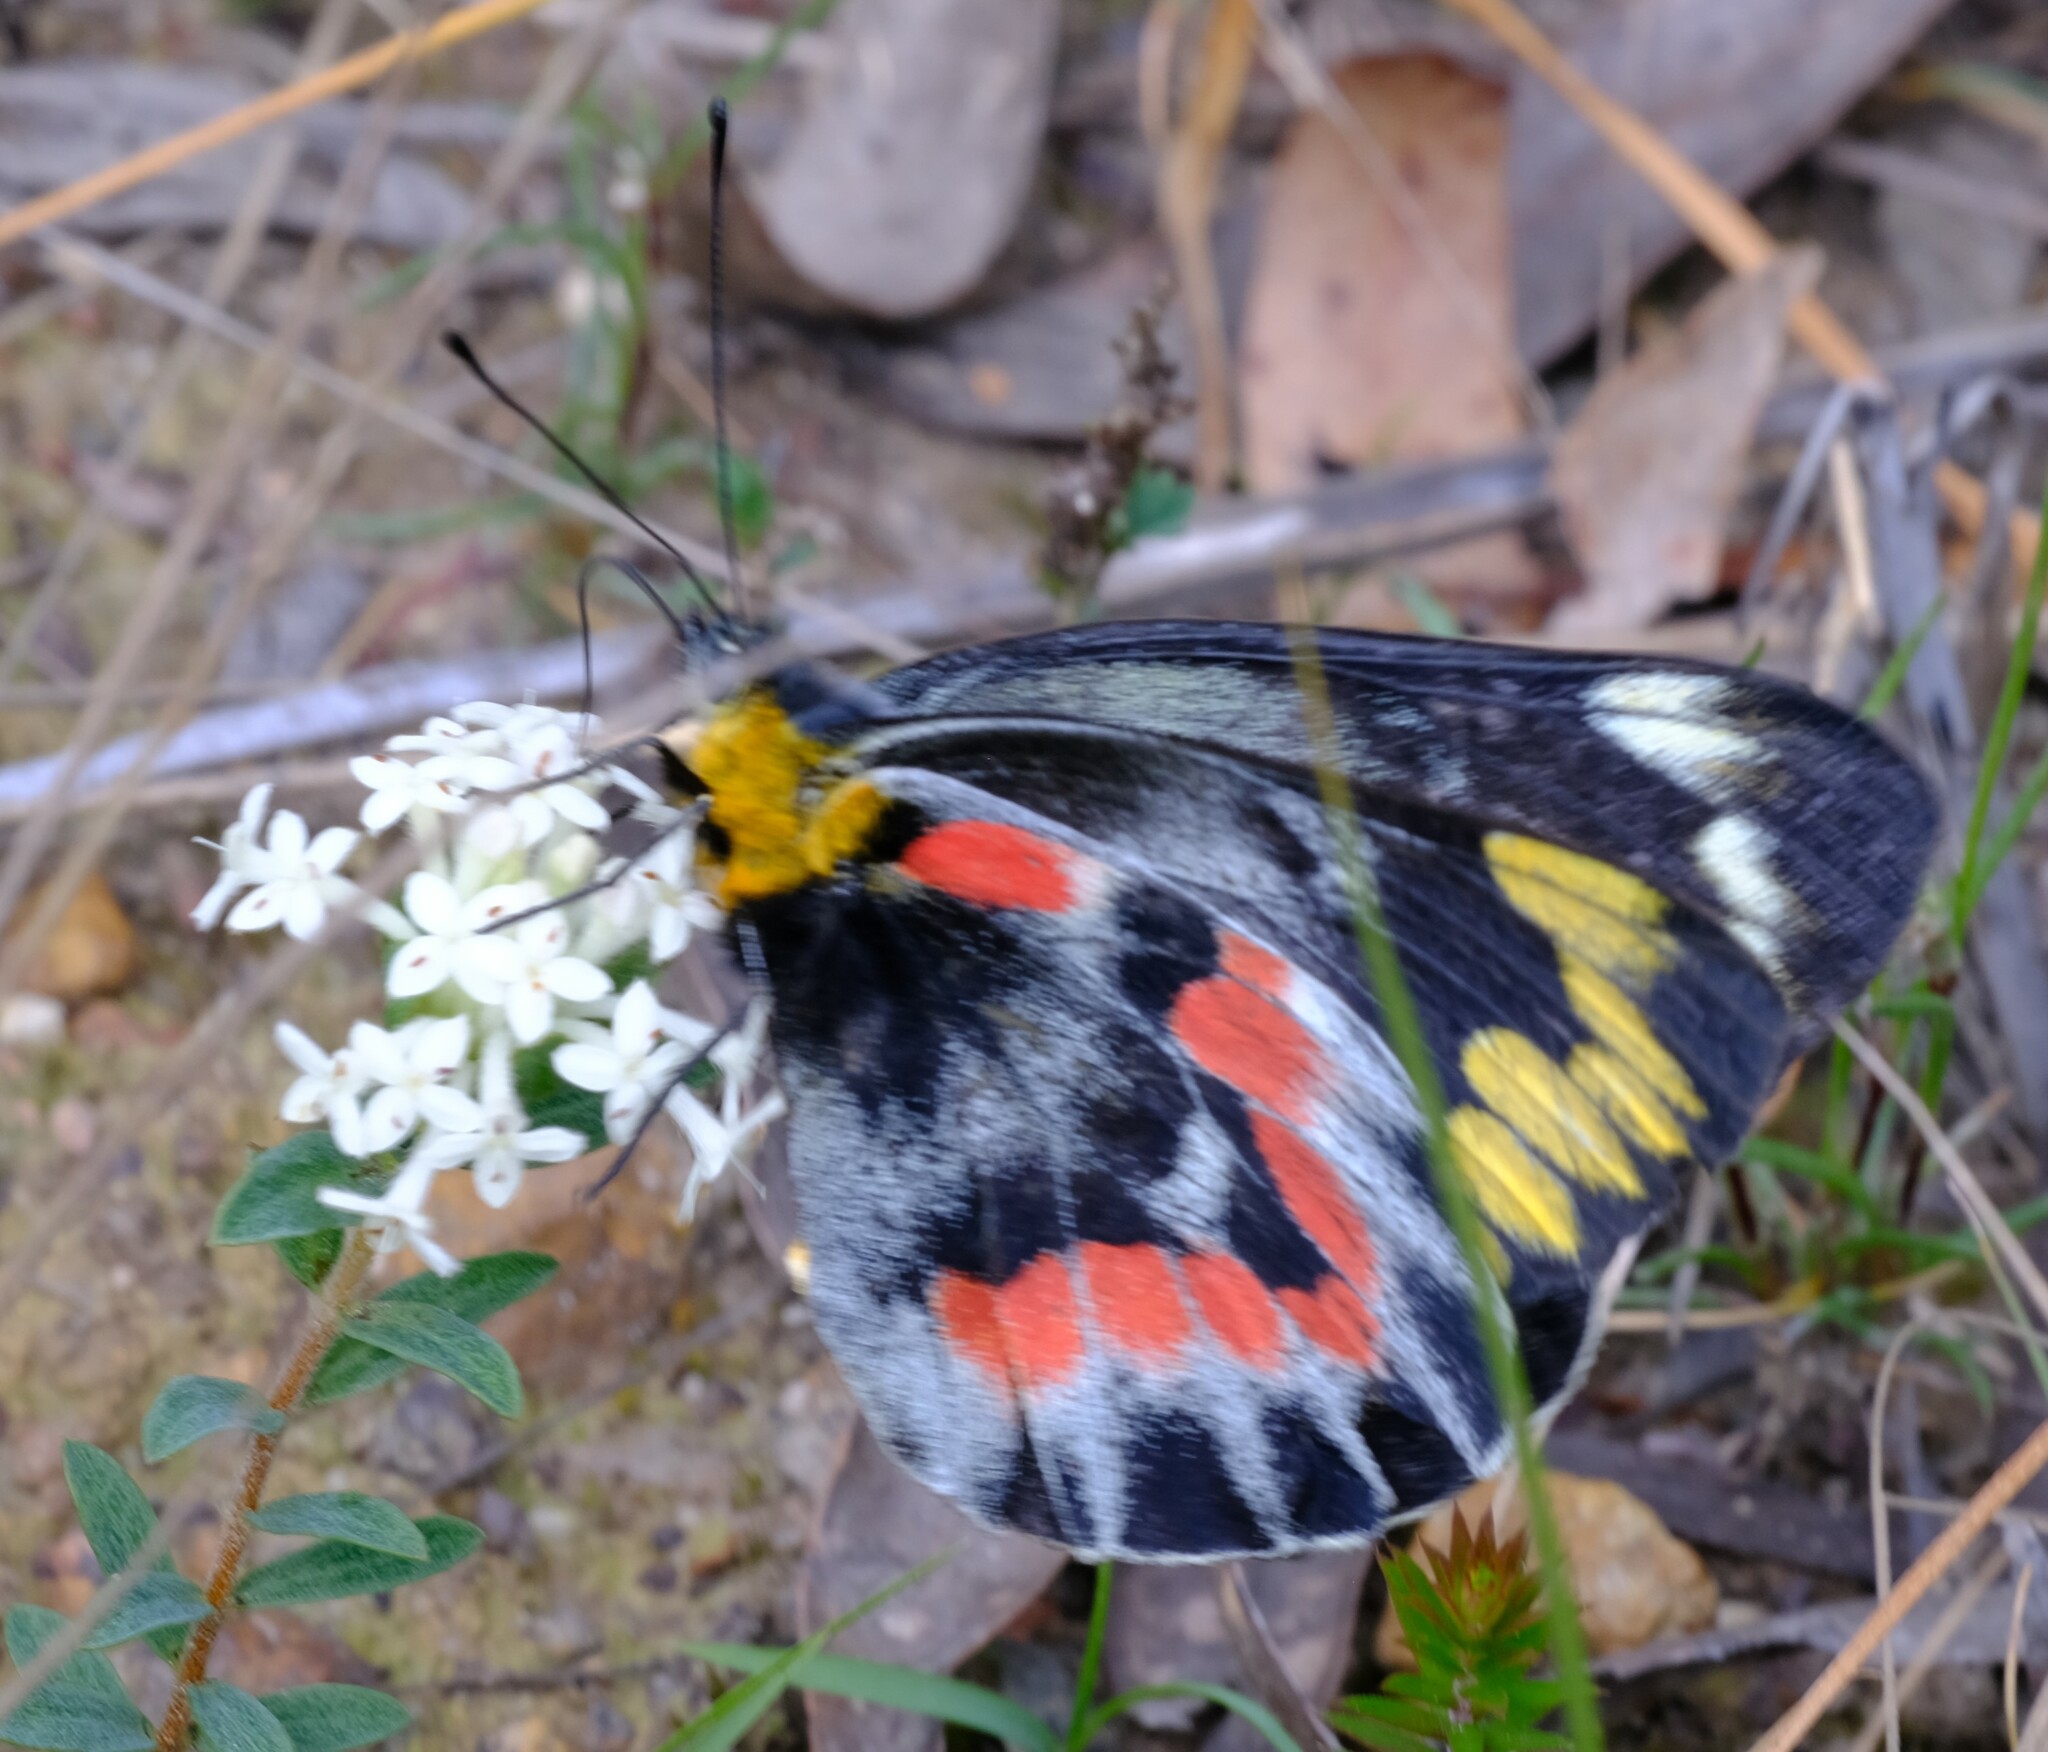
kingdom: Animalia
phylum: Arthropoda
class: Insecta
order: Lepidoptera
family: Pieridae
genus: Delias
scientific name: Delias harpalyce
